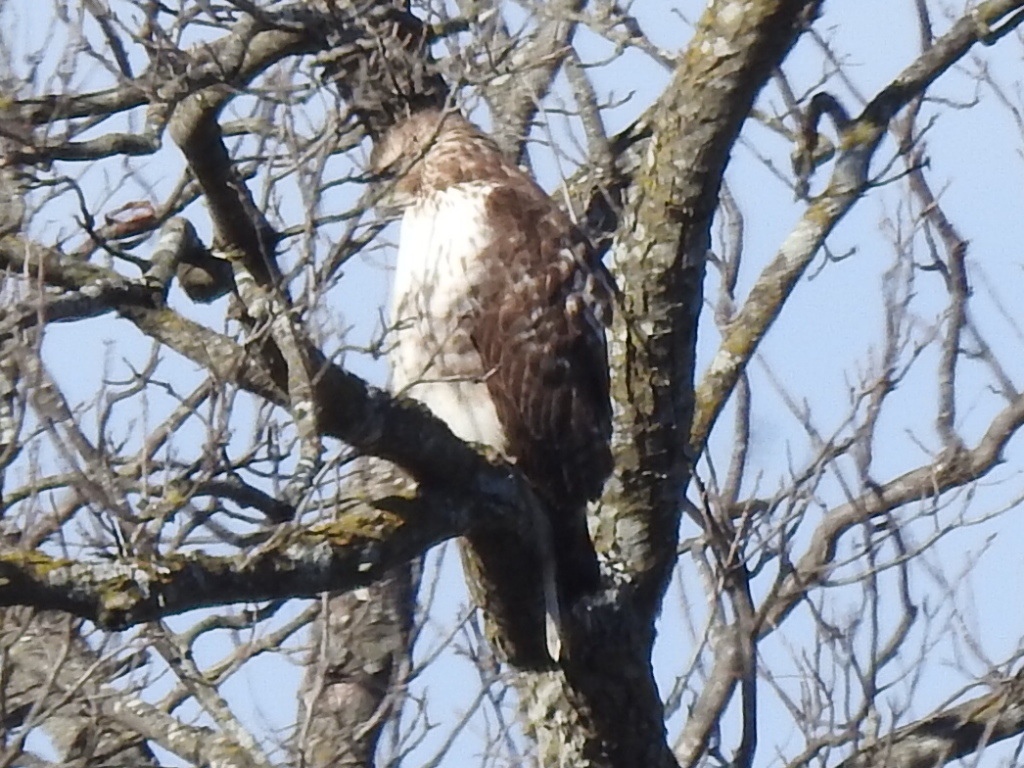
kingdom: Animalia
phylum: Chordata
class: Aves
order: Accipitriformes
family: Accipitridae
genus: Buteo
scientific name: Buteo jamaicensis
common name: Red-tailed hawk
